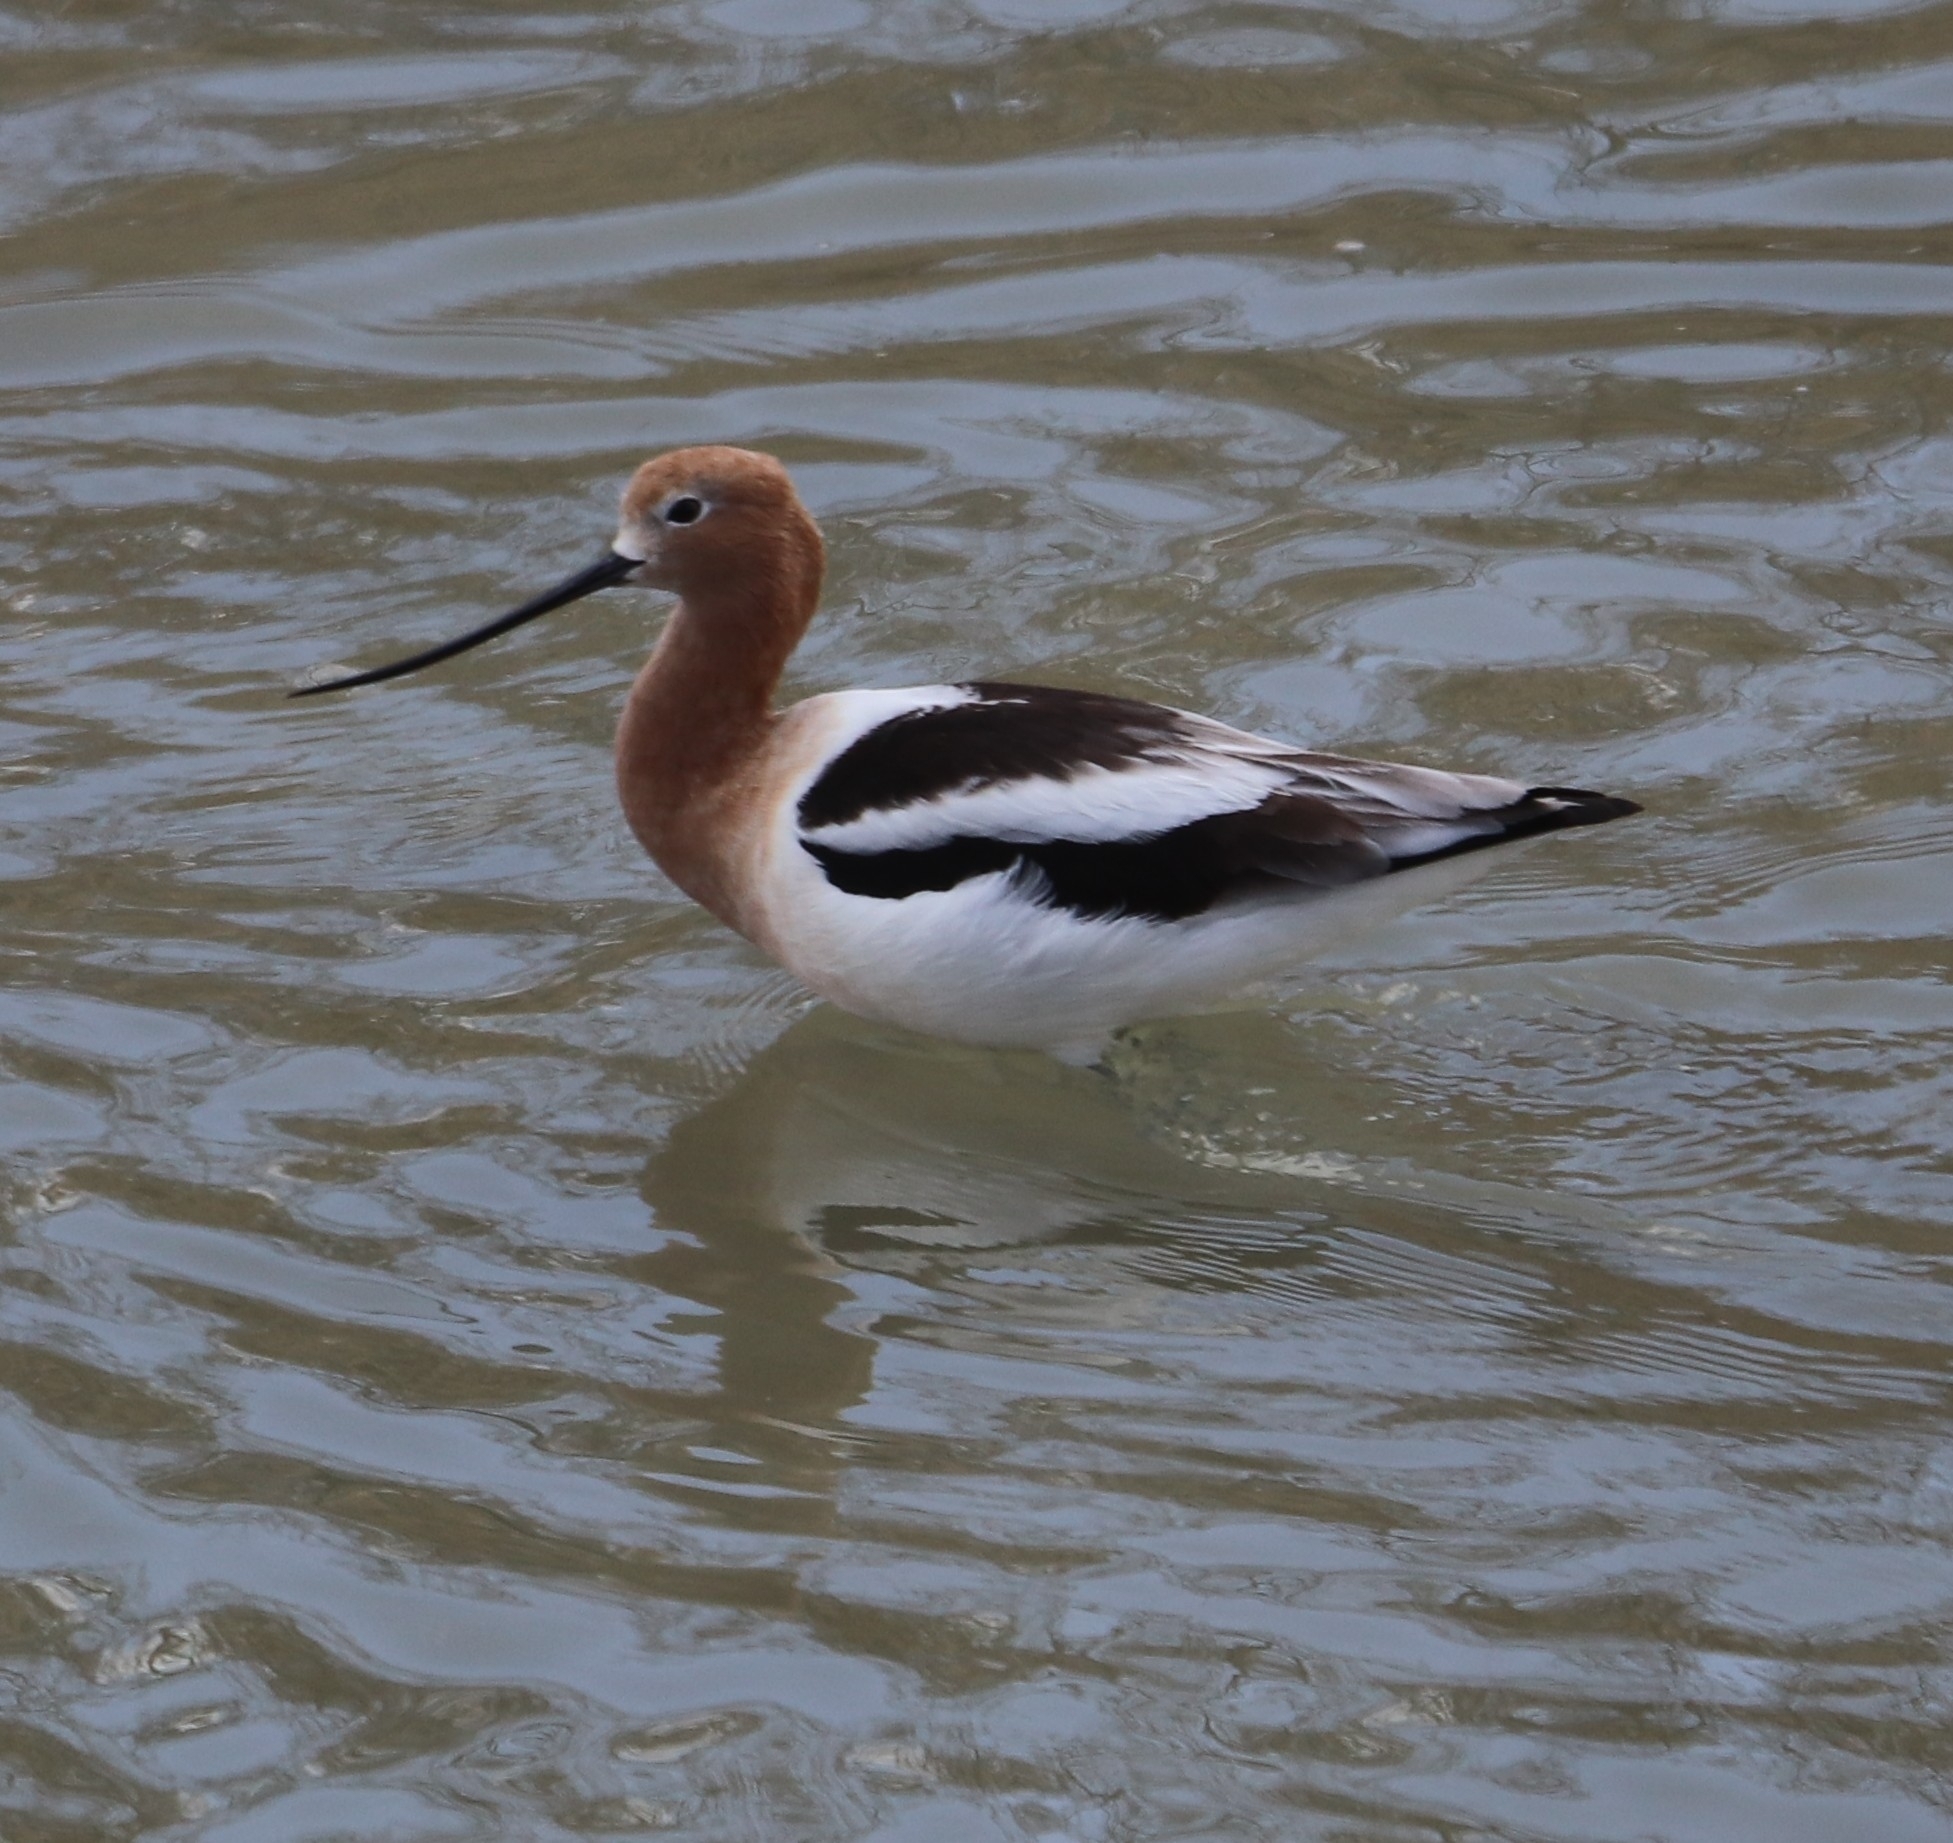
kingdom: Animalia
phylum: Chordata
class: Aves
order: Charadriiformes
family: Recurvirostridae
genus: Recurvirostra
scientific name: Recurvirostra americana
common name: American avocet
